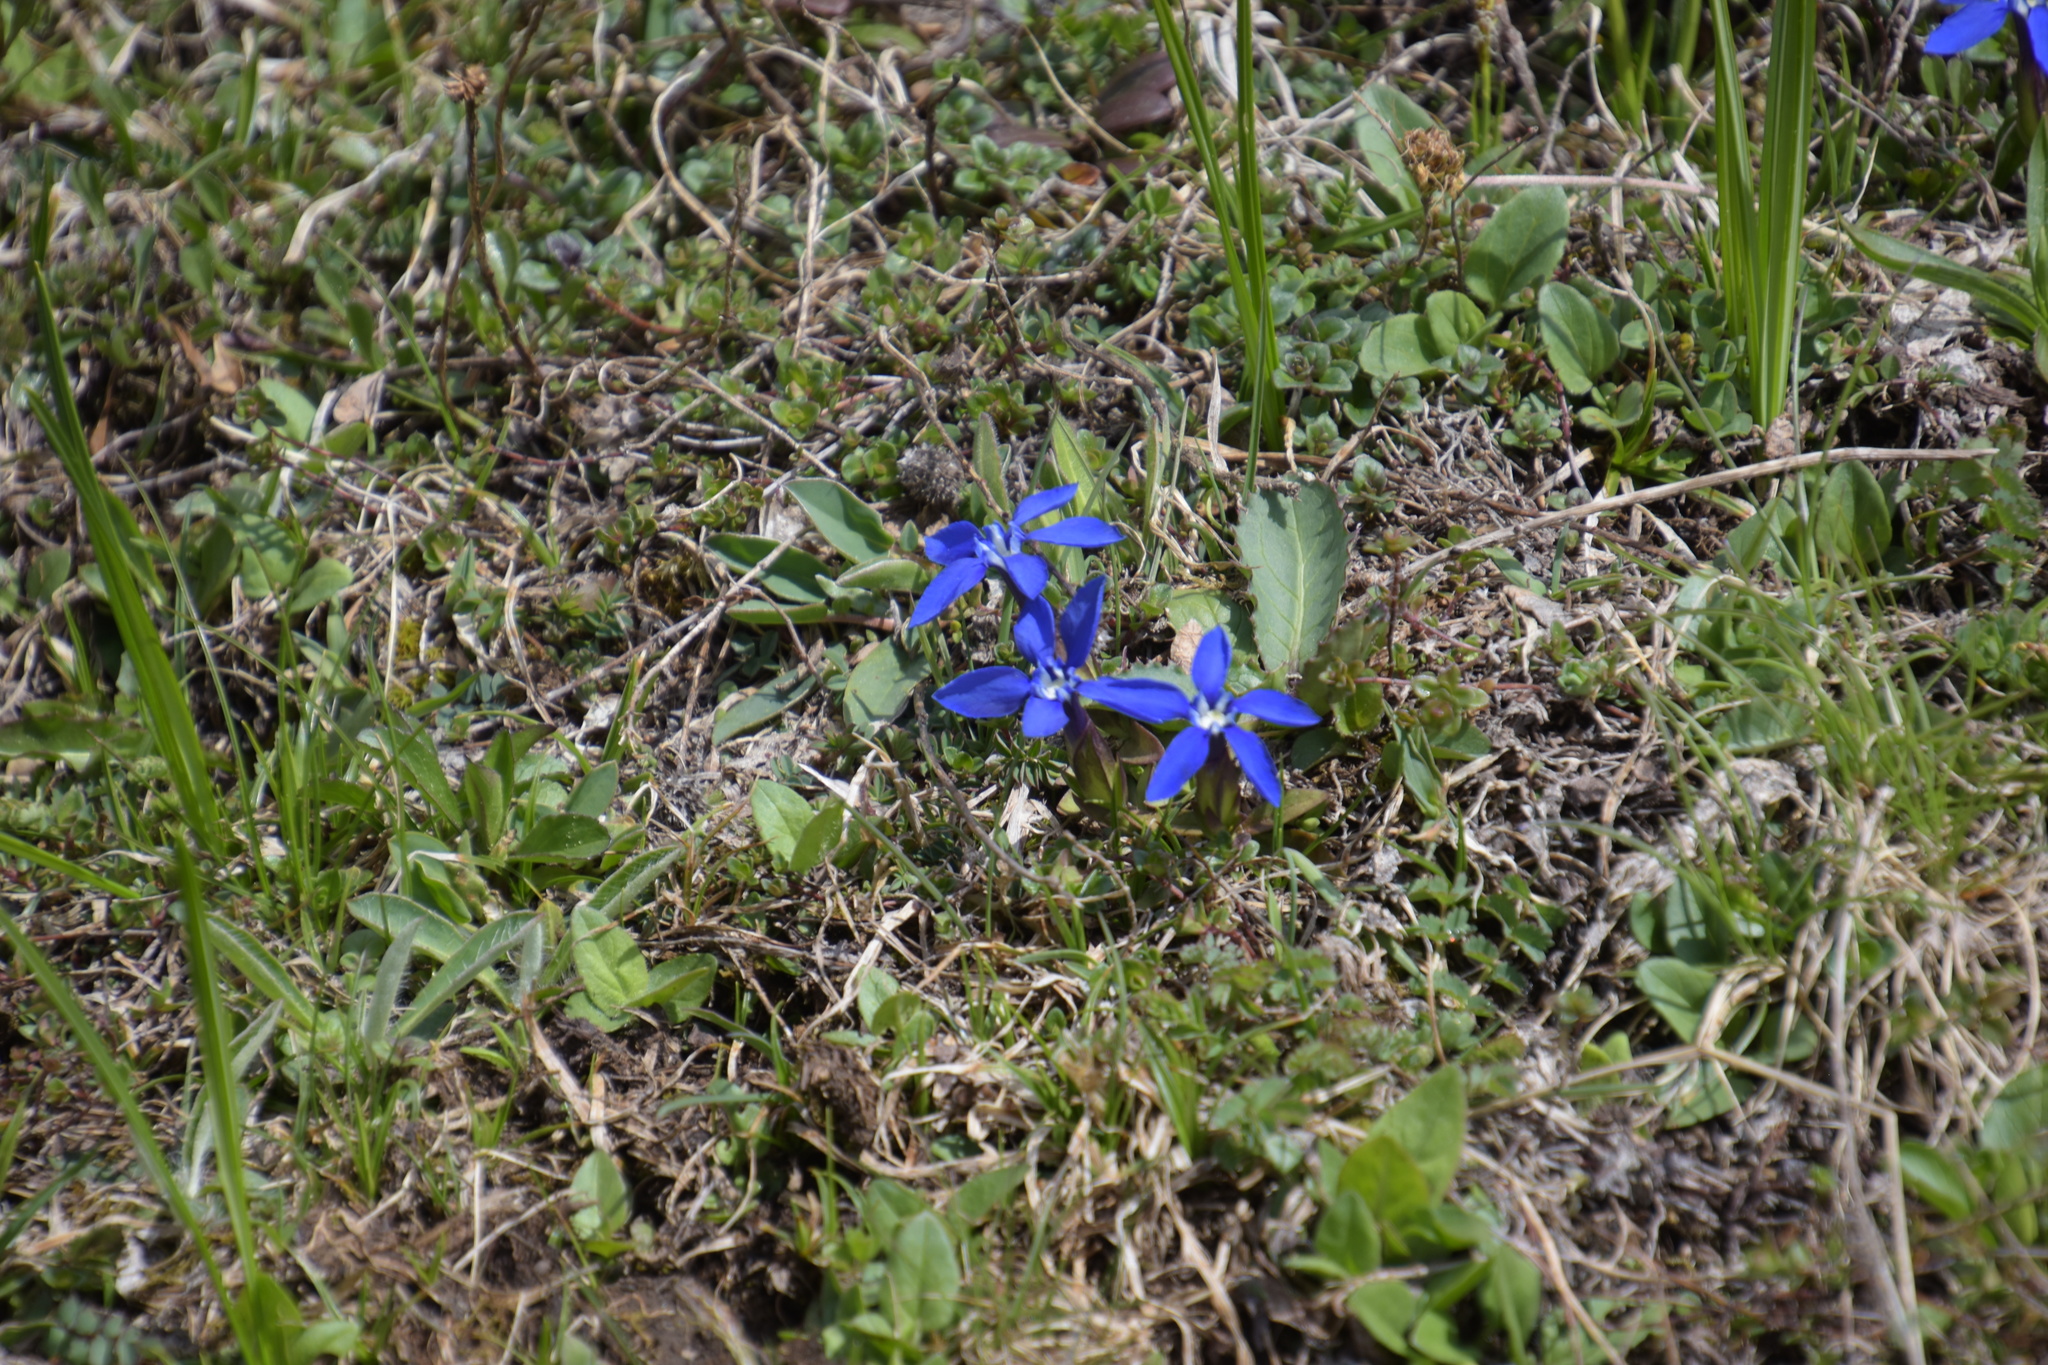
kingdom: Plantae
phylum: Tracheophyta
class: Magnoliopsida
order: Gentianales
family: Gentianaceae
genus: Gentiana
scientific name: Gentiana verna
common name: Spring gentian
